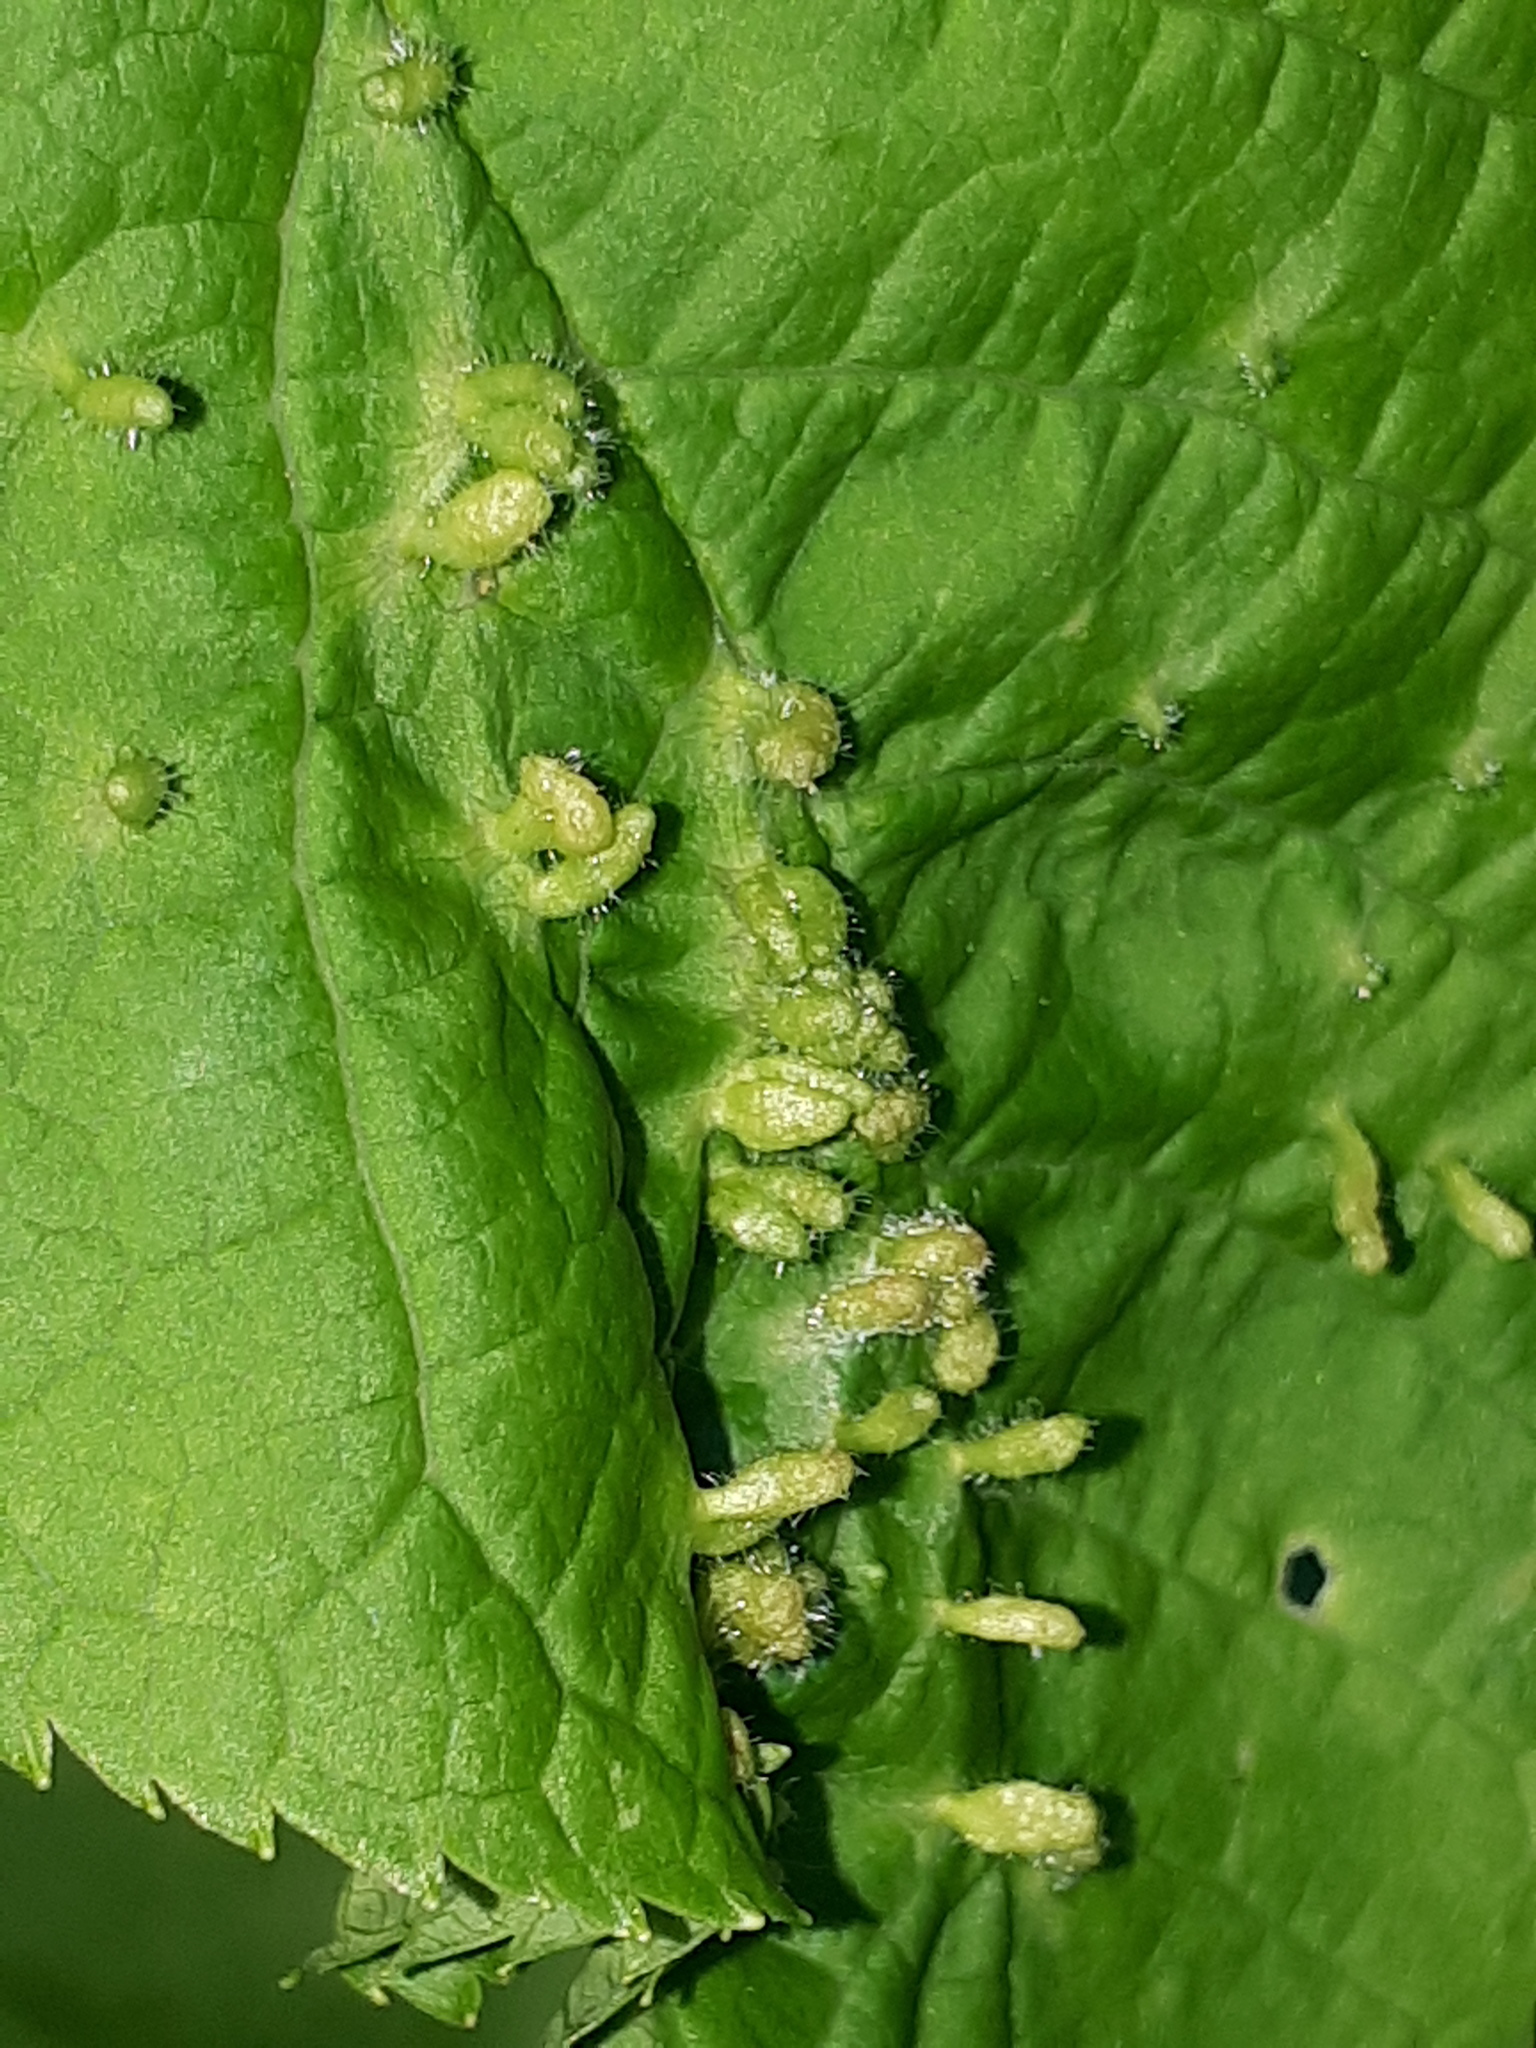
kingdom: Animalia
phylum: Arthropoda
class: Arachnida
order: Trombidiformes
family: Eriophyidae
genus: Phyllocoptes
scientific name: Phyllocoptes eupadi
